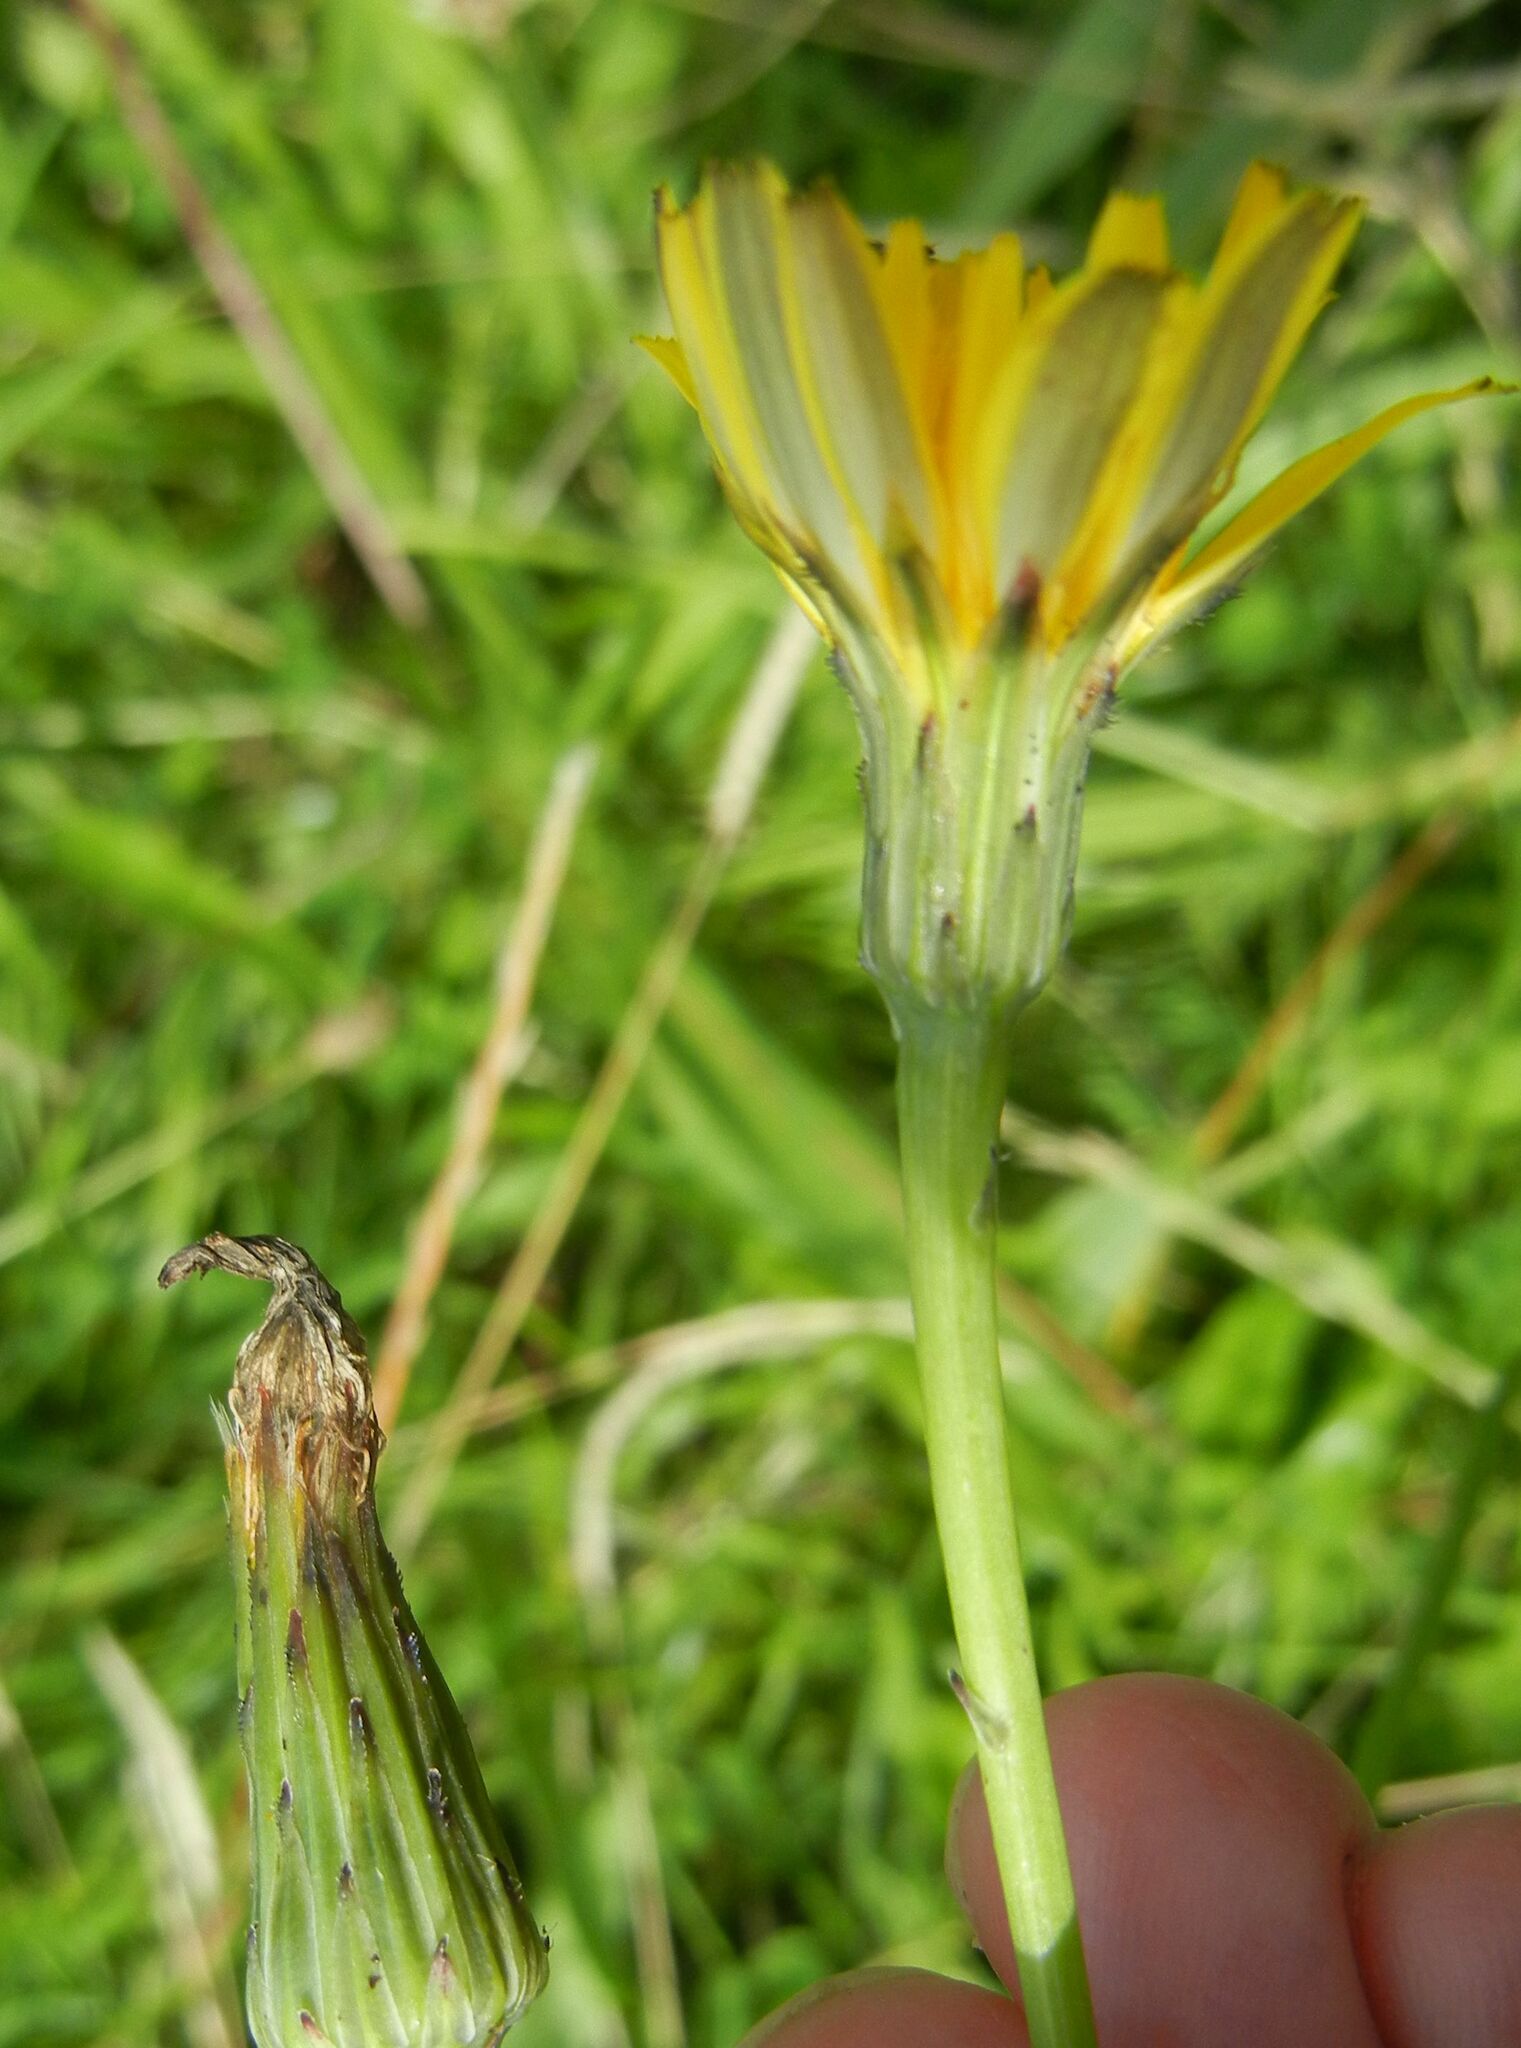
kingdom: Plantae
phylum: Tracheophyta
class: Magnoliopsida
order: Asterales
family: Asteraceae
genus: Hypochaeris
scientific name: Hypochaeris radicata
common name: Flatweed
